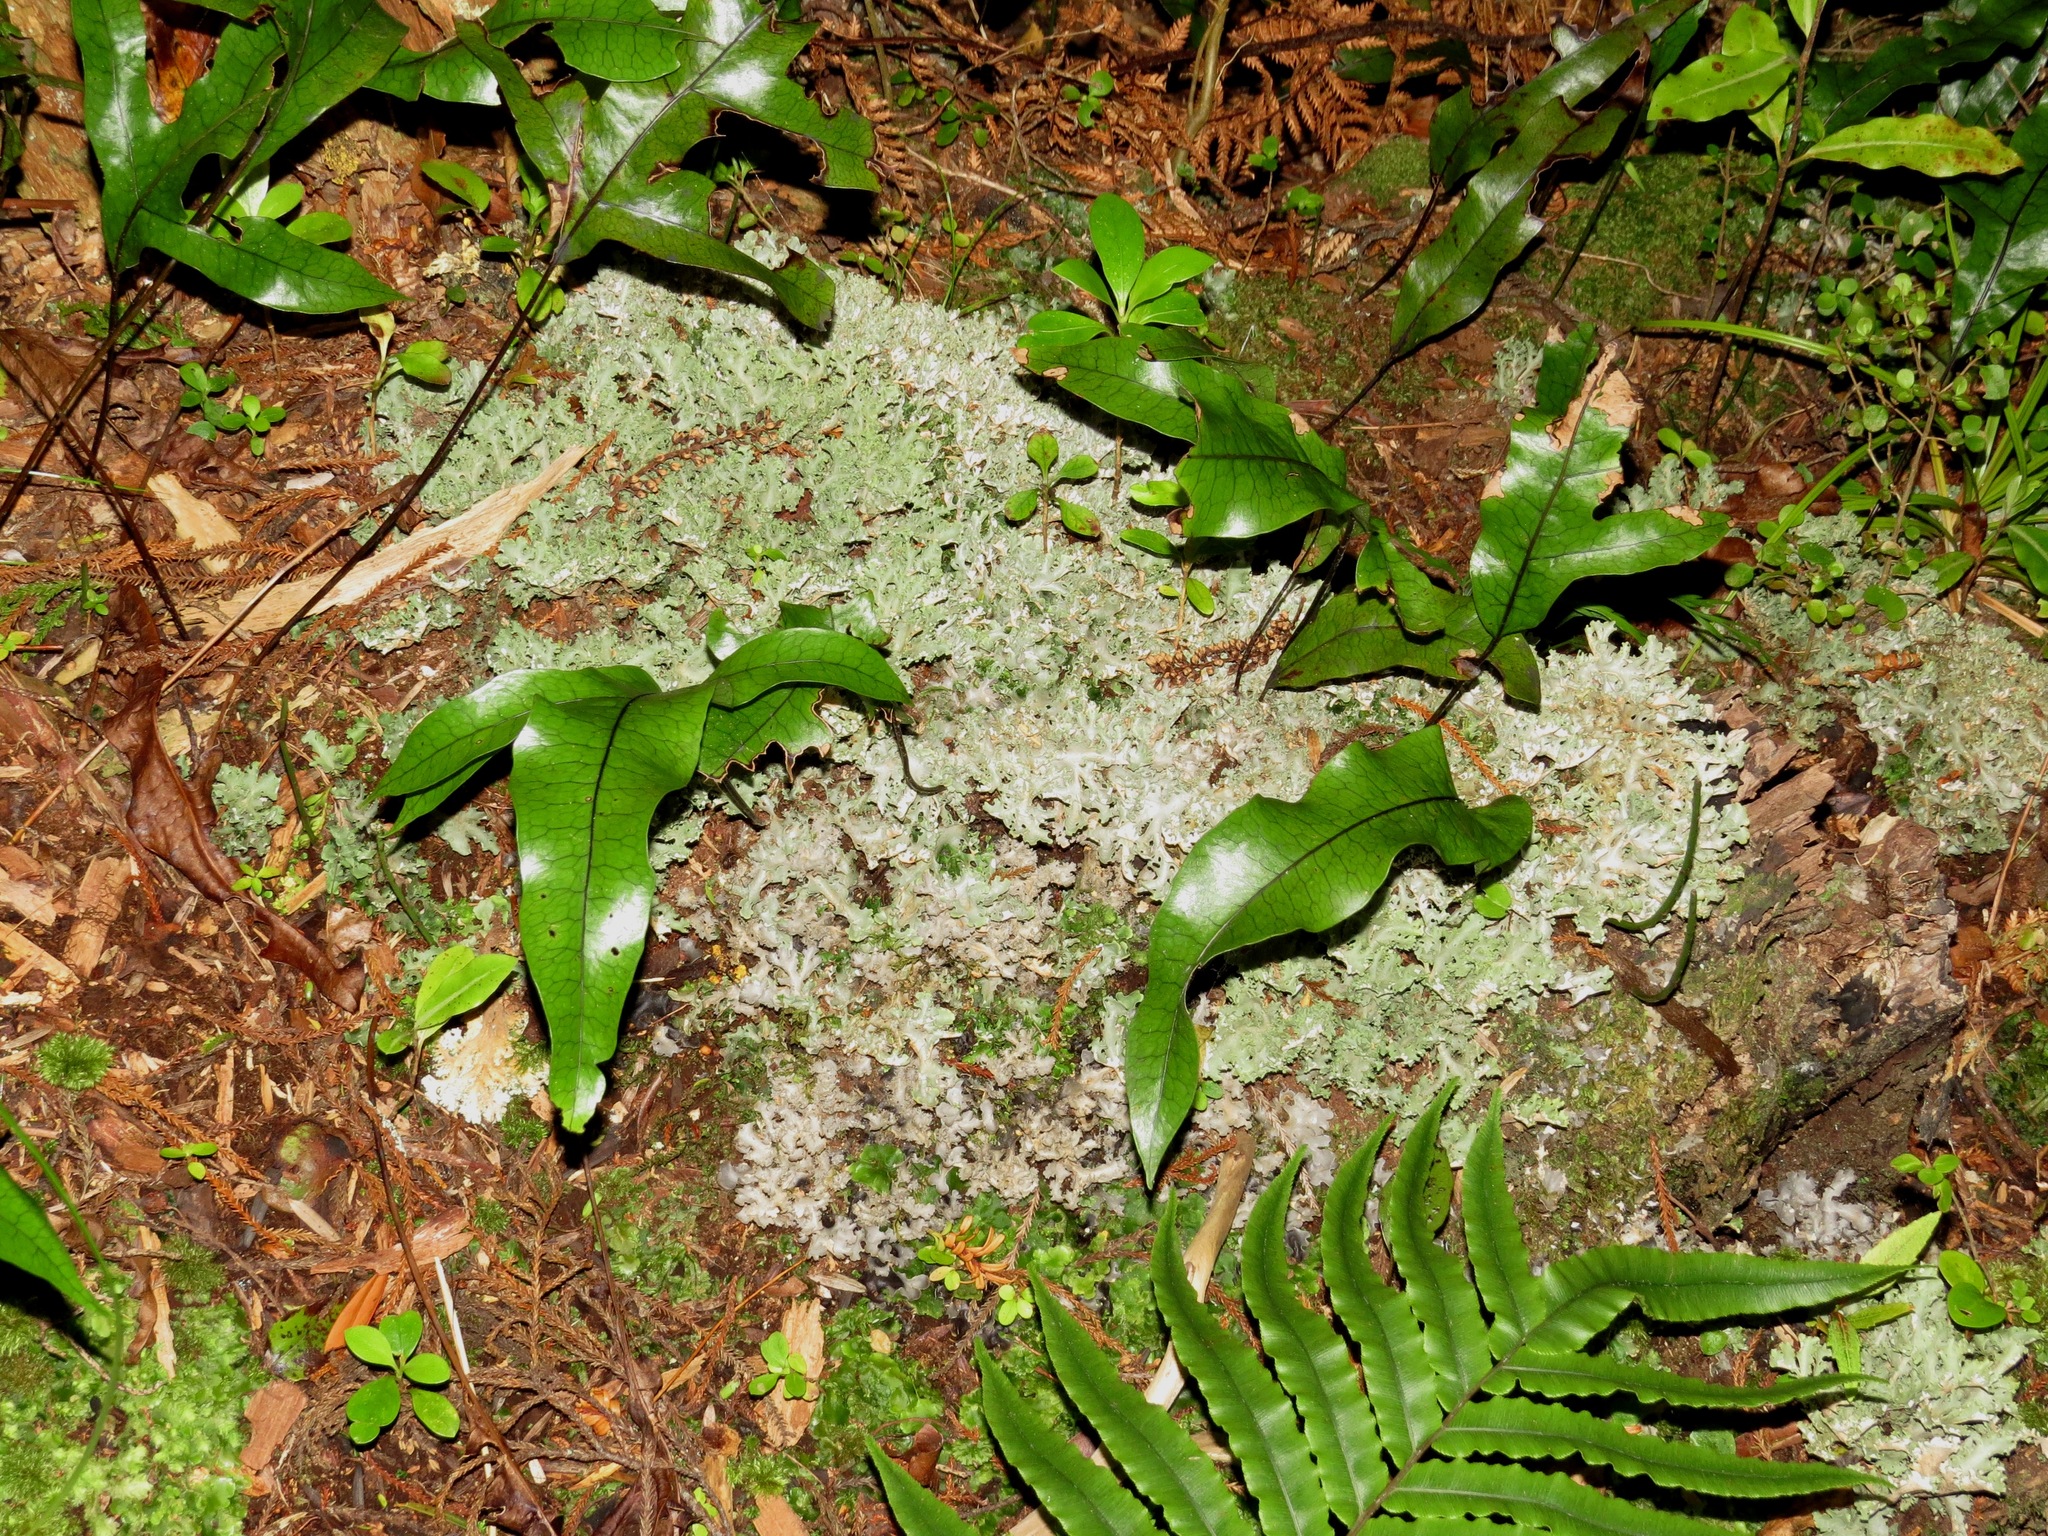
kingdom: Plantae
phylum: Tracheophyta
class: Polypodiopsida
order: Polypodiales
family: Polypodiaceae
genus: Lecanopteris
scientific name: Lecanopteris pustulata
